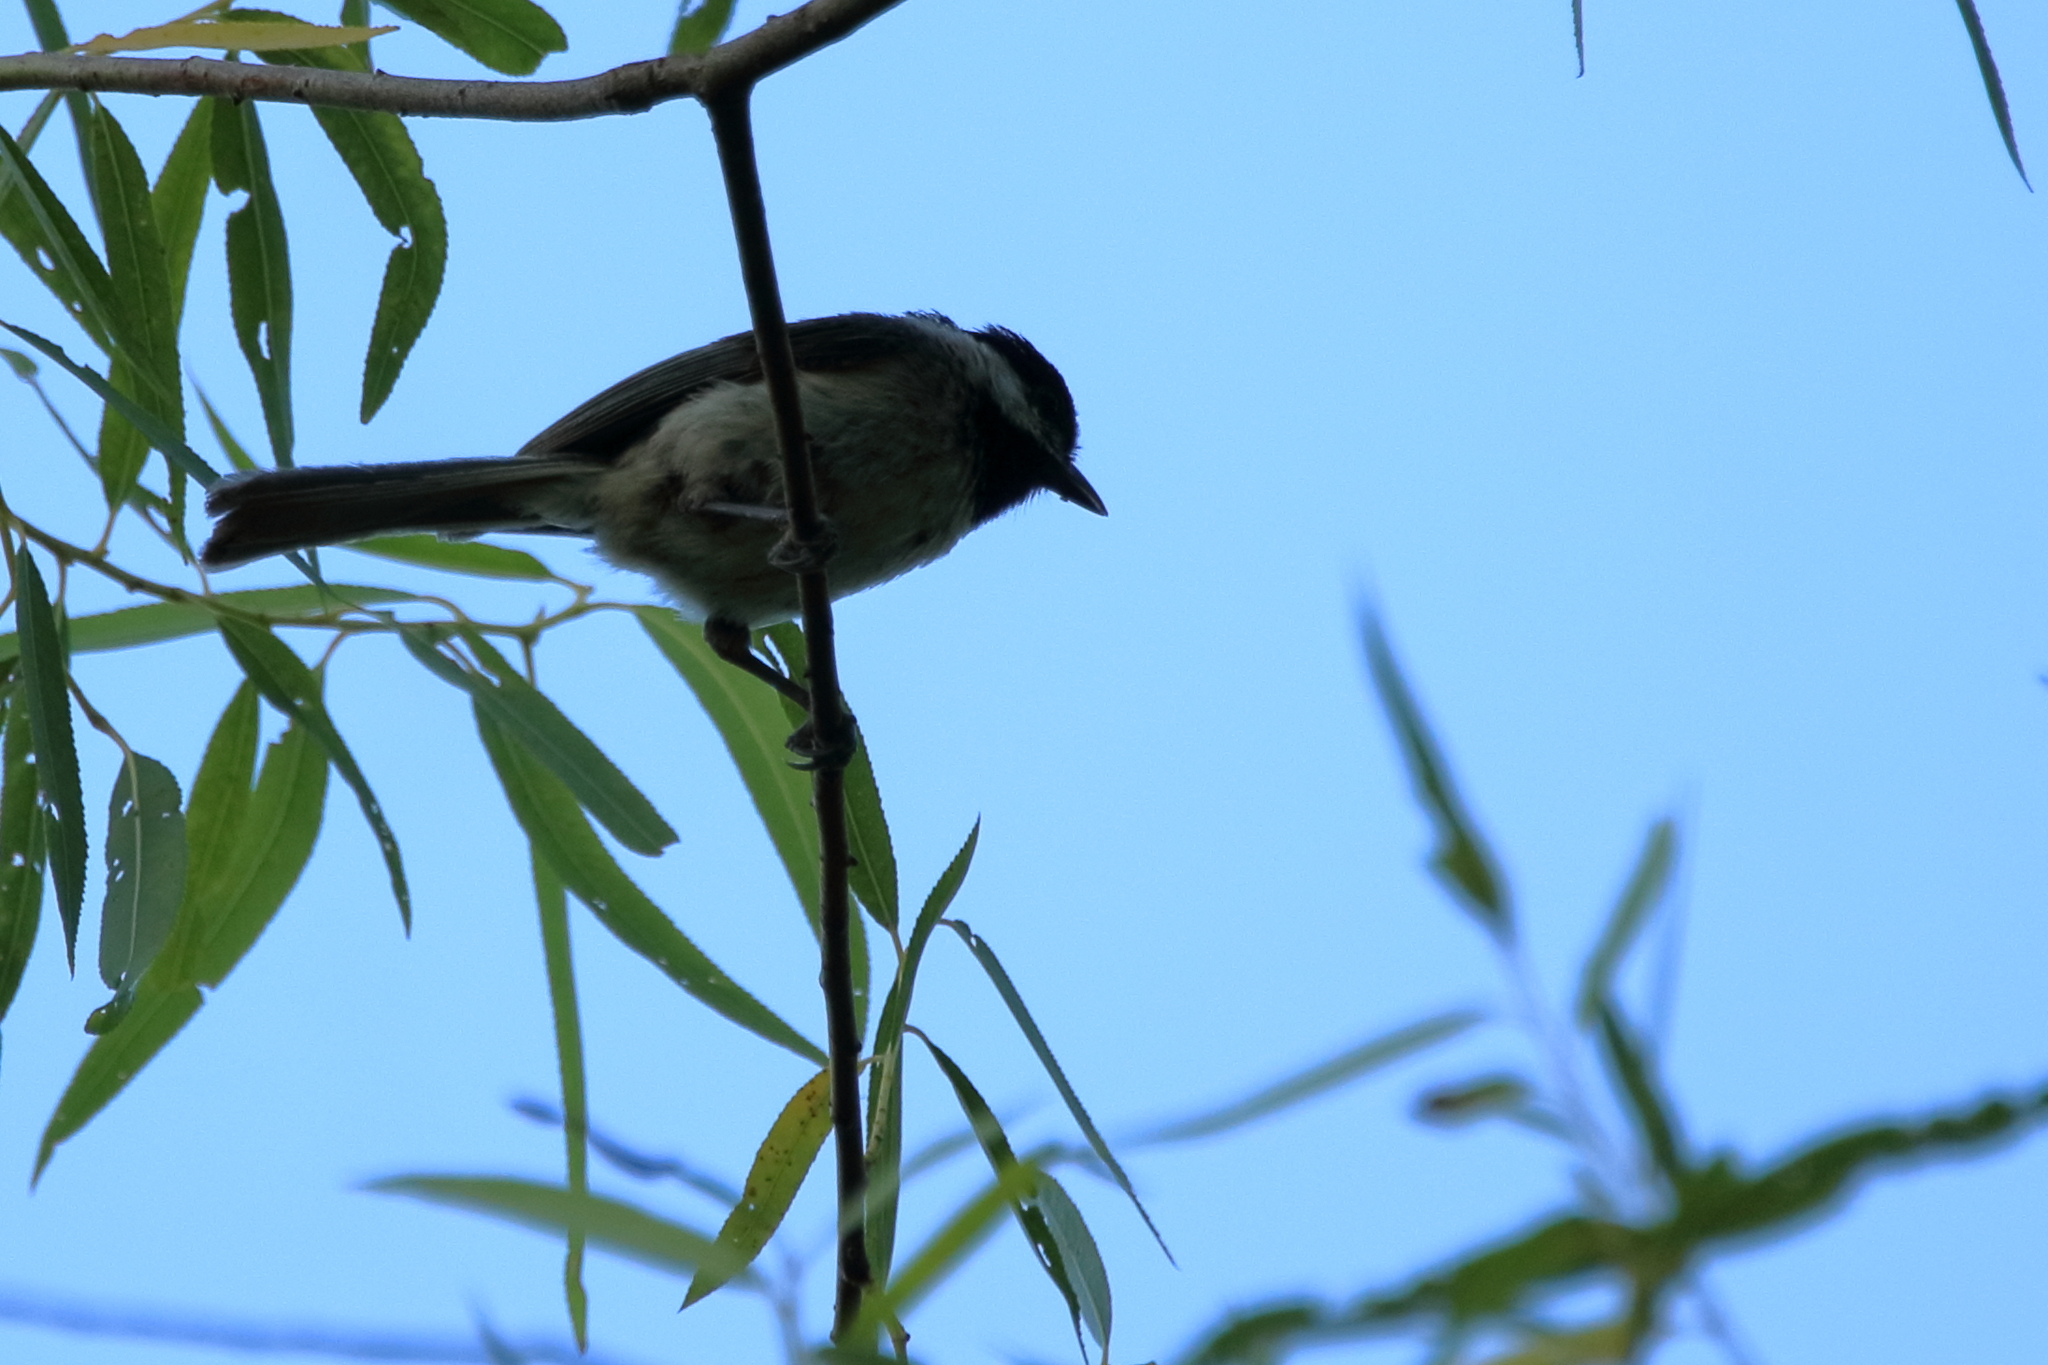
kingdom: Animalia
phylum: Chordata
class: Aves
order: Passeriformes
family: Paridae
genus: Poecile
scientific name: Poecile carolinensis
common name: Carolina chickadee
